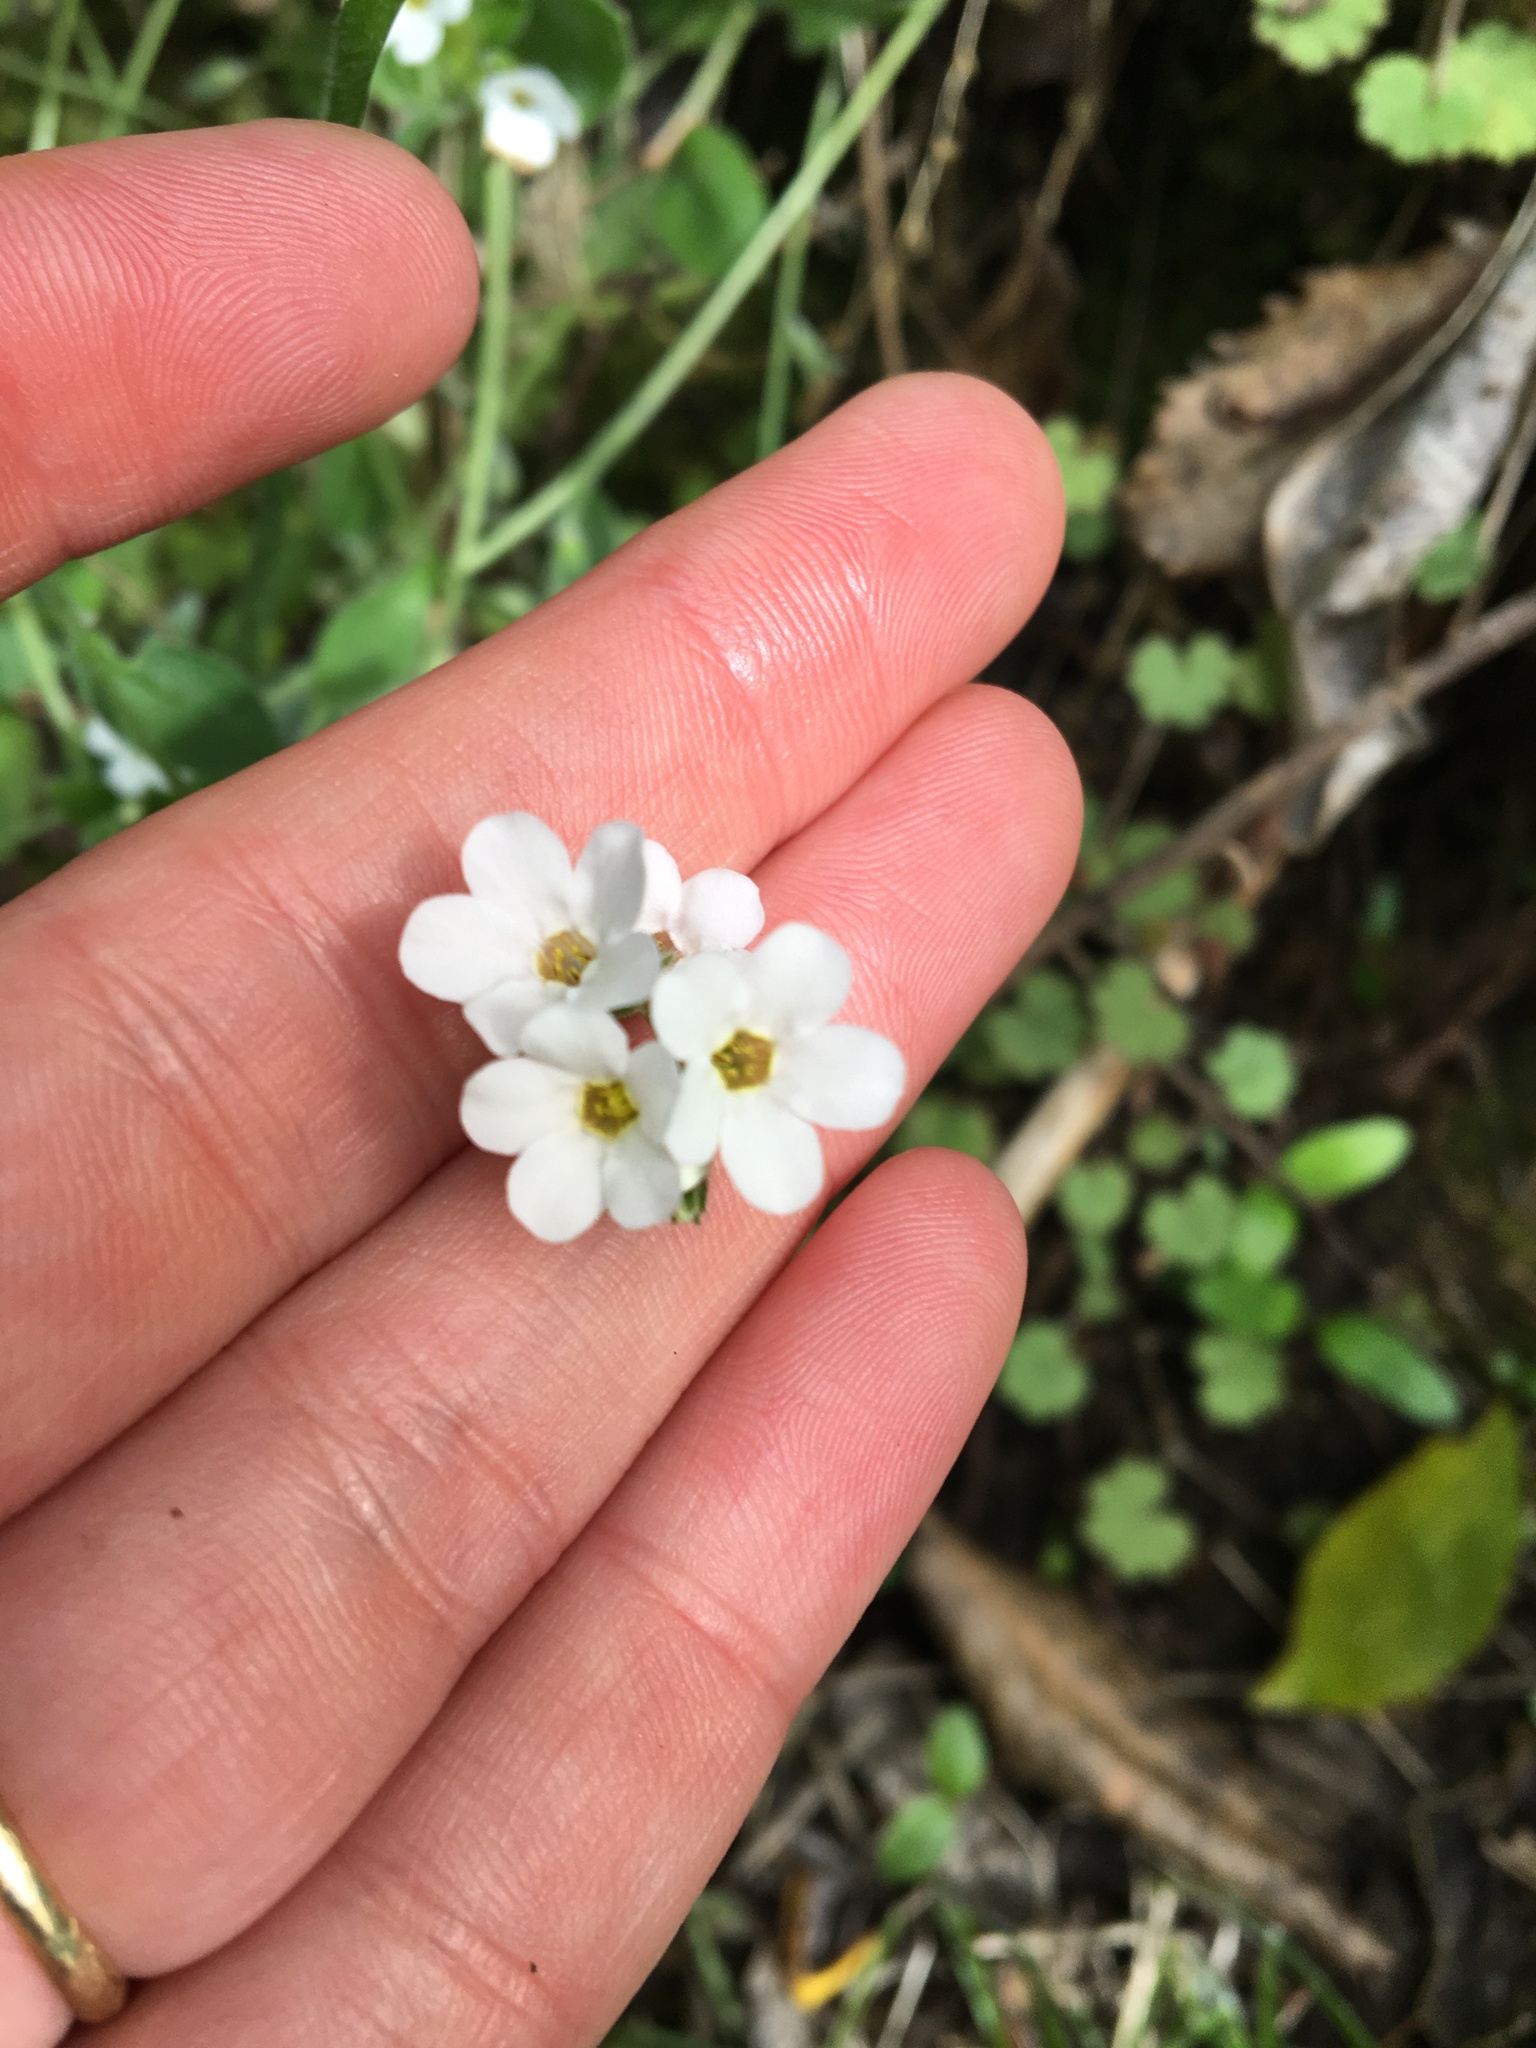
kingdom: Plantae
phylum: Tracheophyta
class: Magnoliopsida
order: Boraginales
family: Boraginaceae
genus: Myosotis
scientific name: Myosotis australis
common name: Australian forget-me-not
